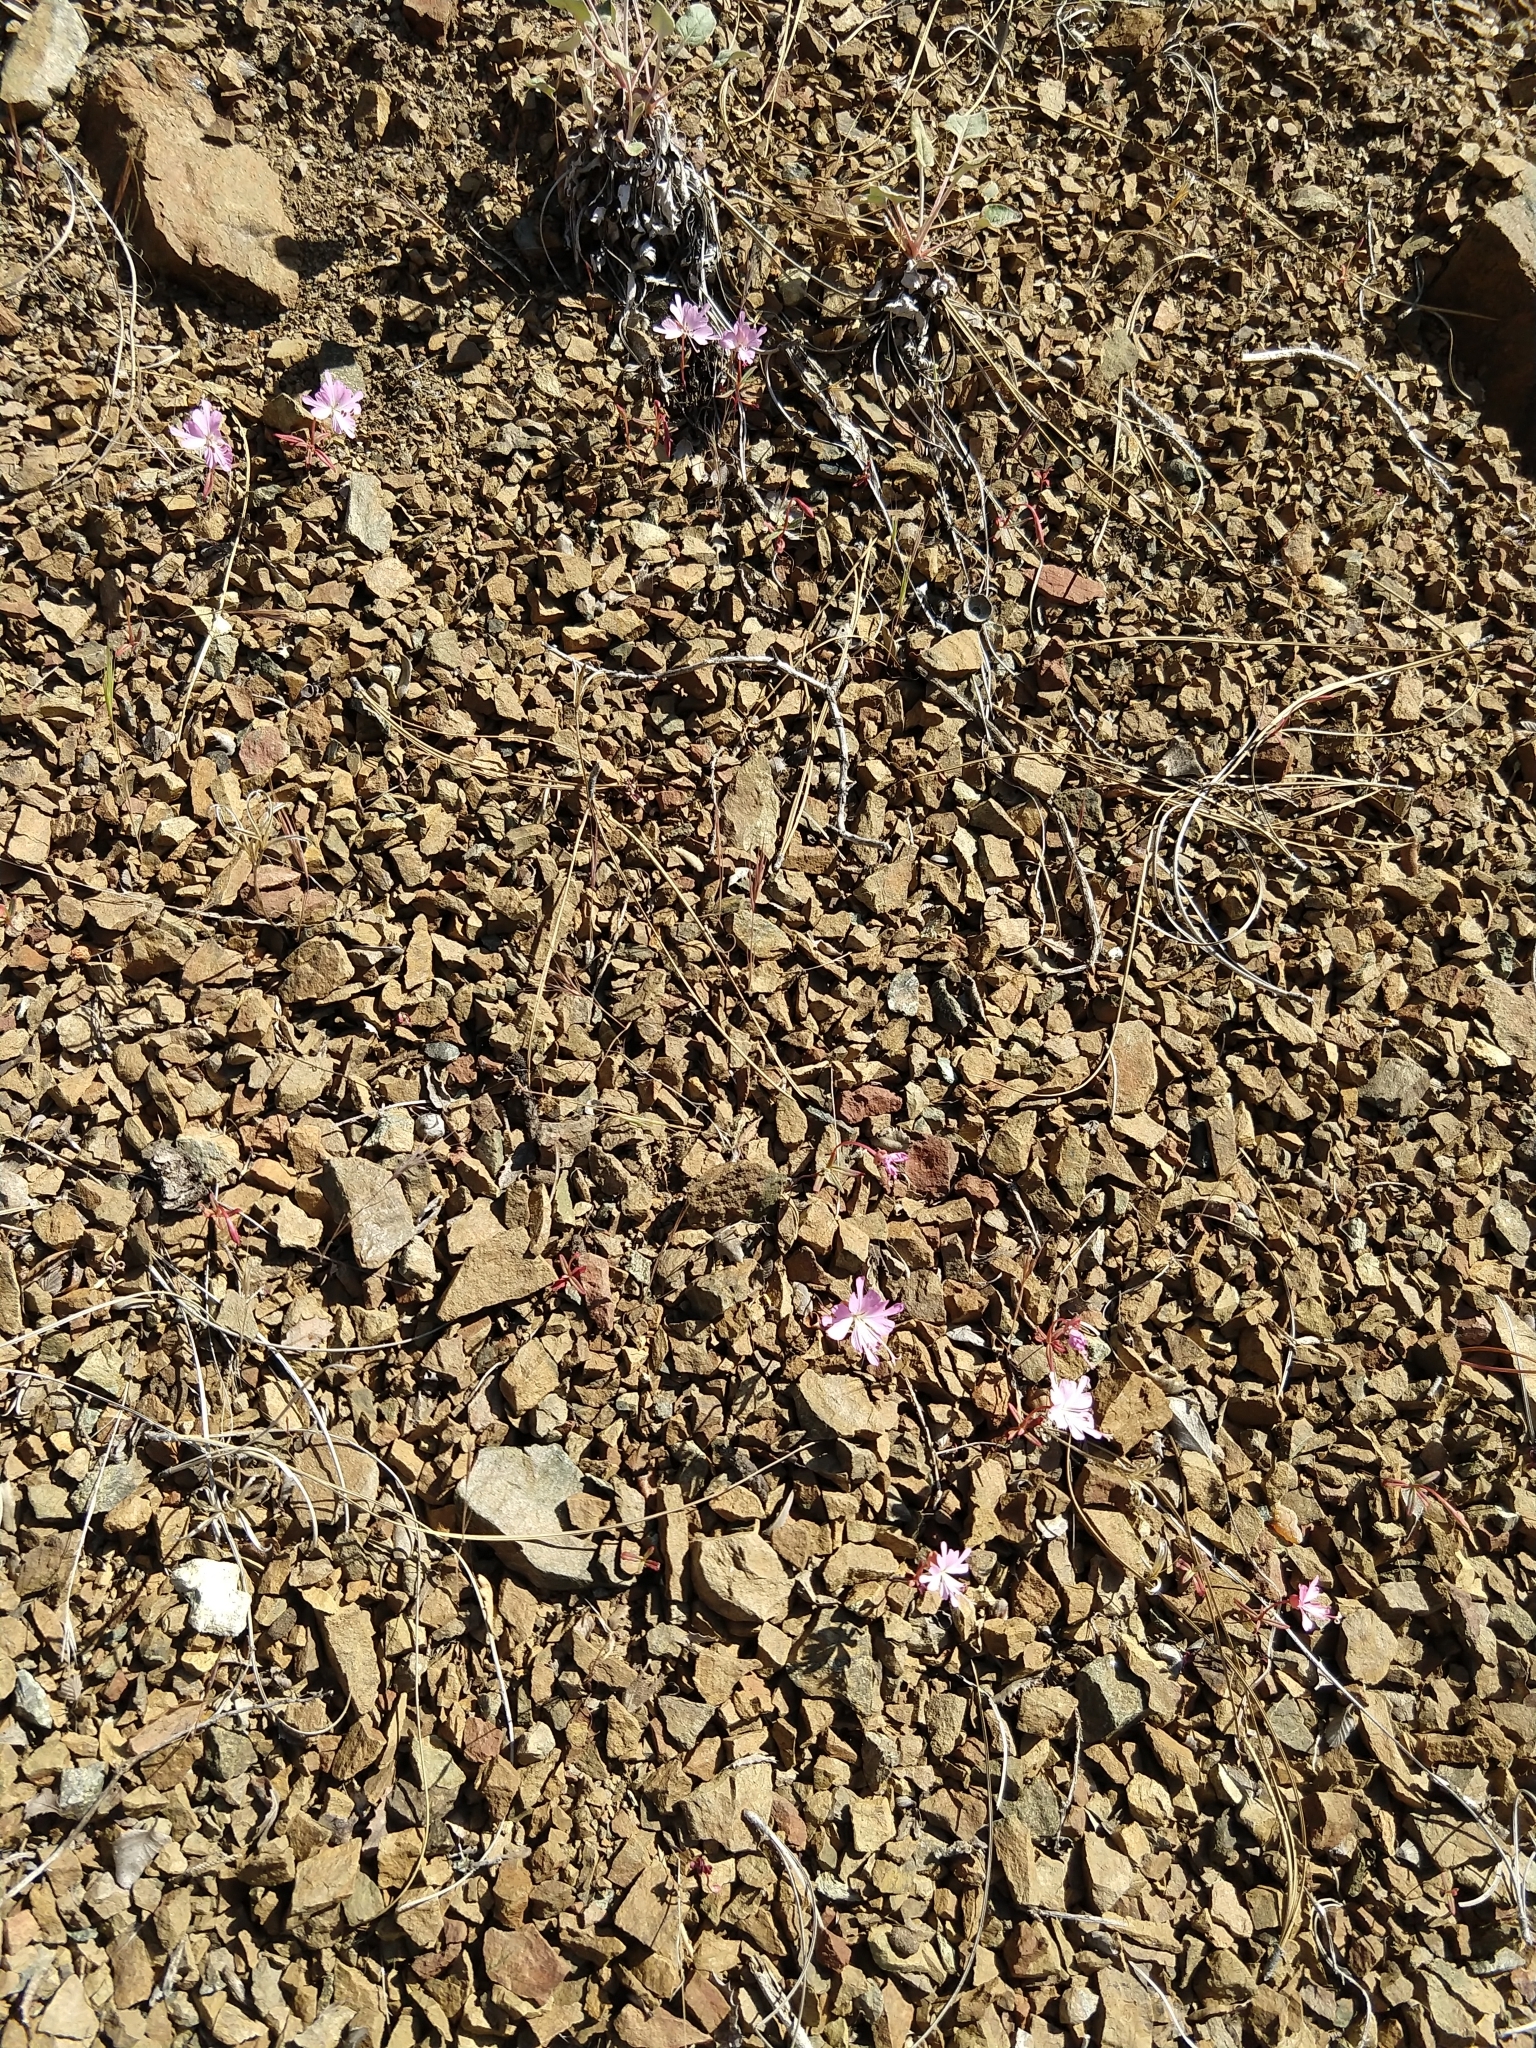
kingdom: Plantae
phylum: Tracheophyta
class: Magnoliopsida
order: Myrtales
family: Onagraceae
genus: Clarkia
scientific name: Clarkia breweri
